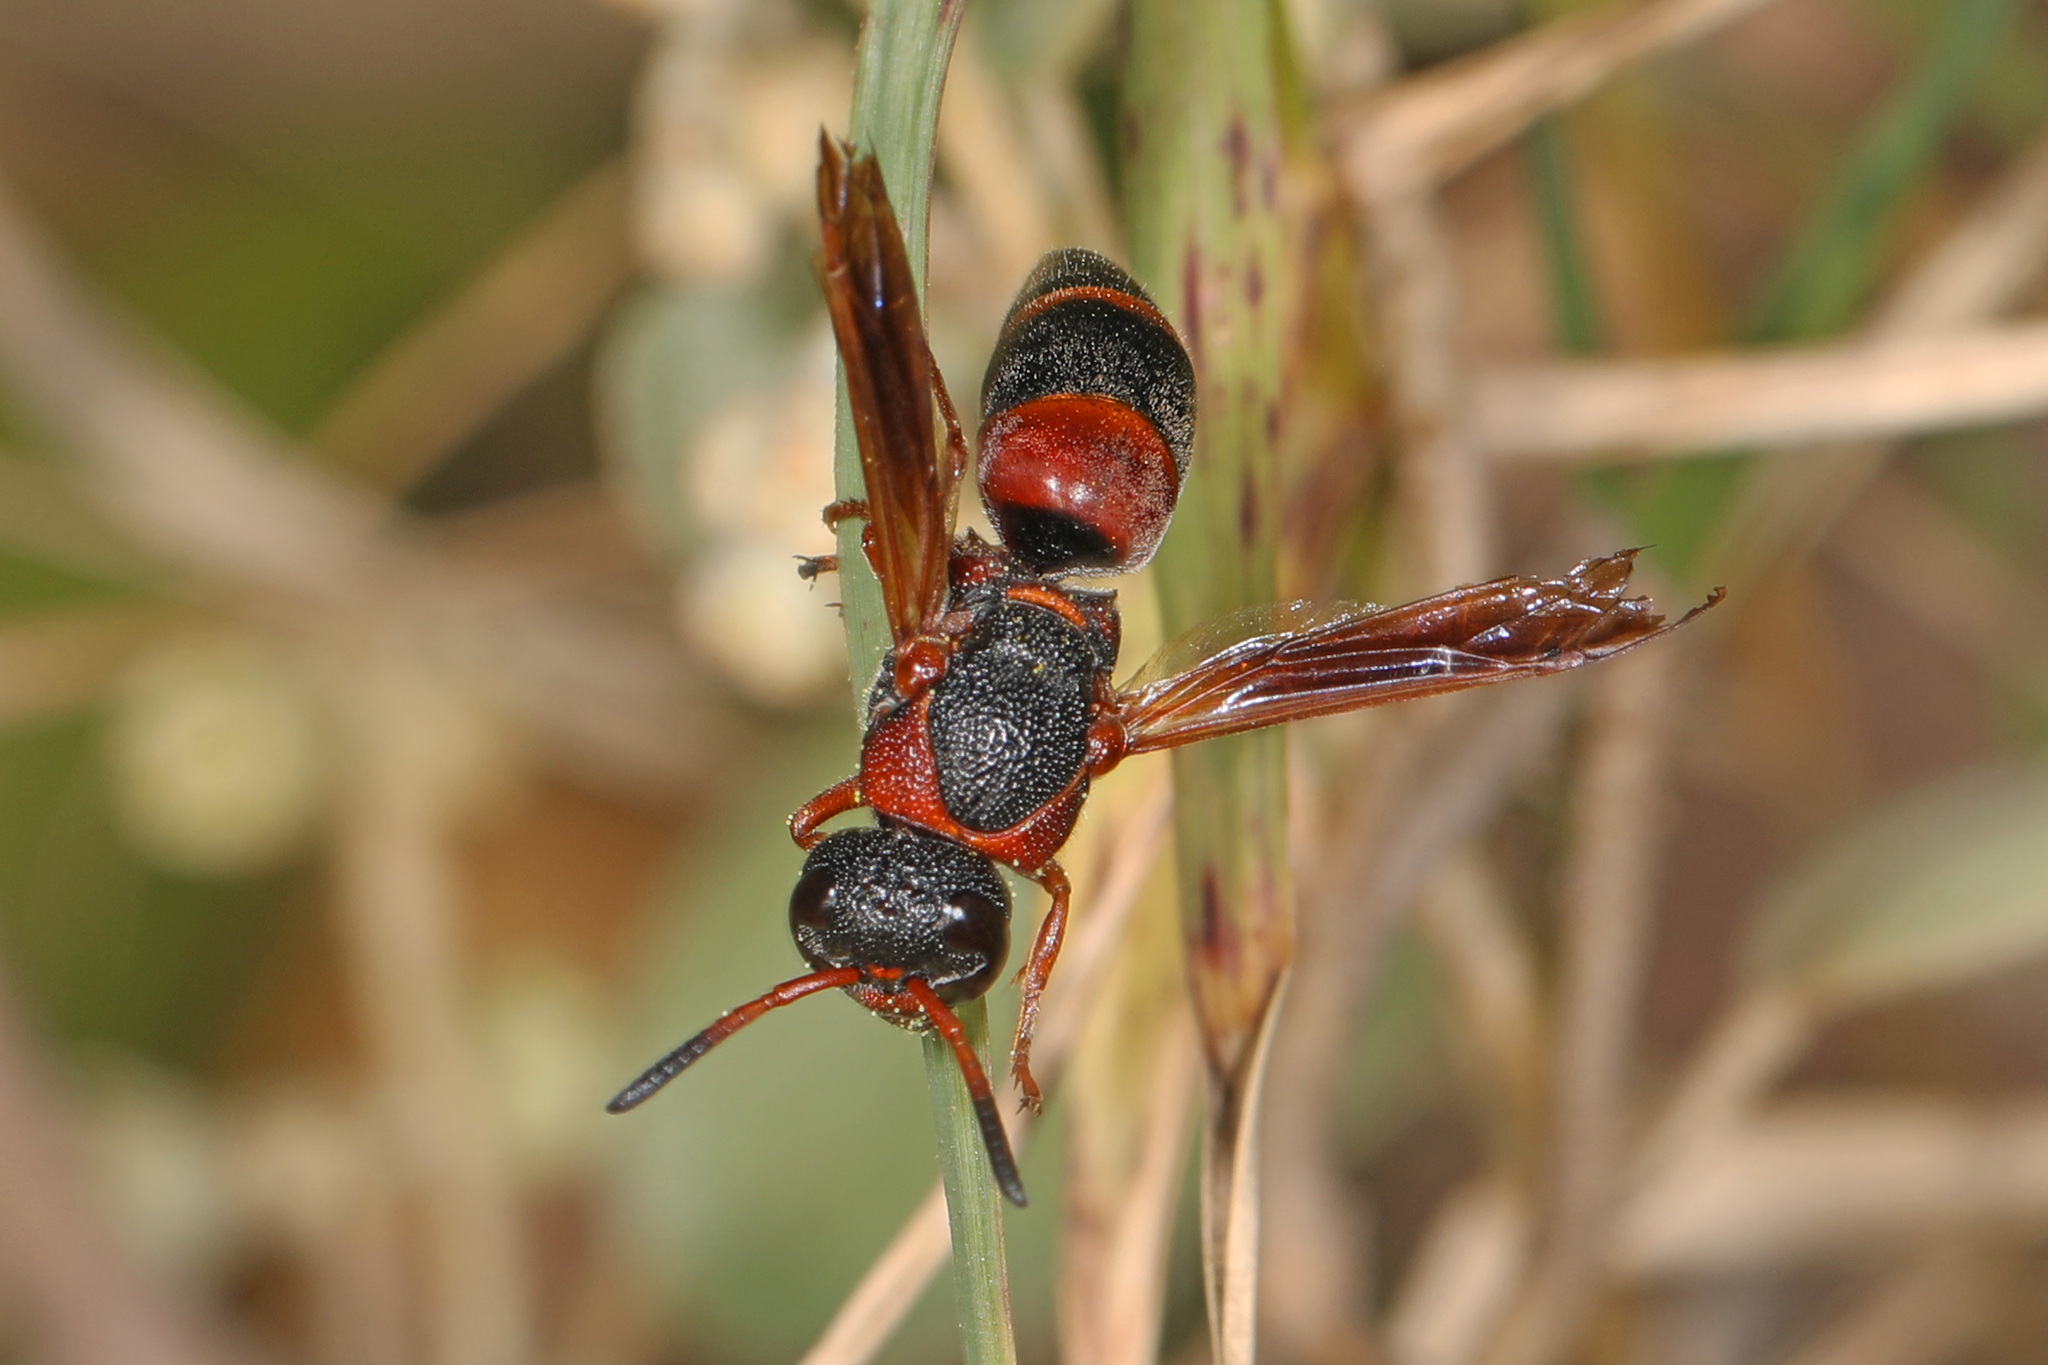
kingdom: Animalia
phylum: Arthropoda
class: Insecta
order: Hymenoptera
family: Eumenidae
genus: Pachodynerus
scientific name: Pachodynerus erynnis
